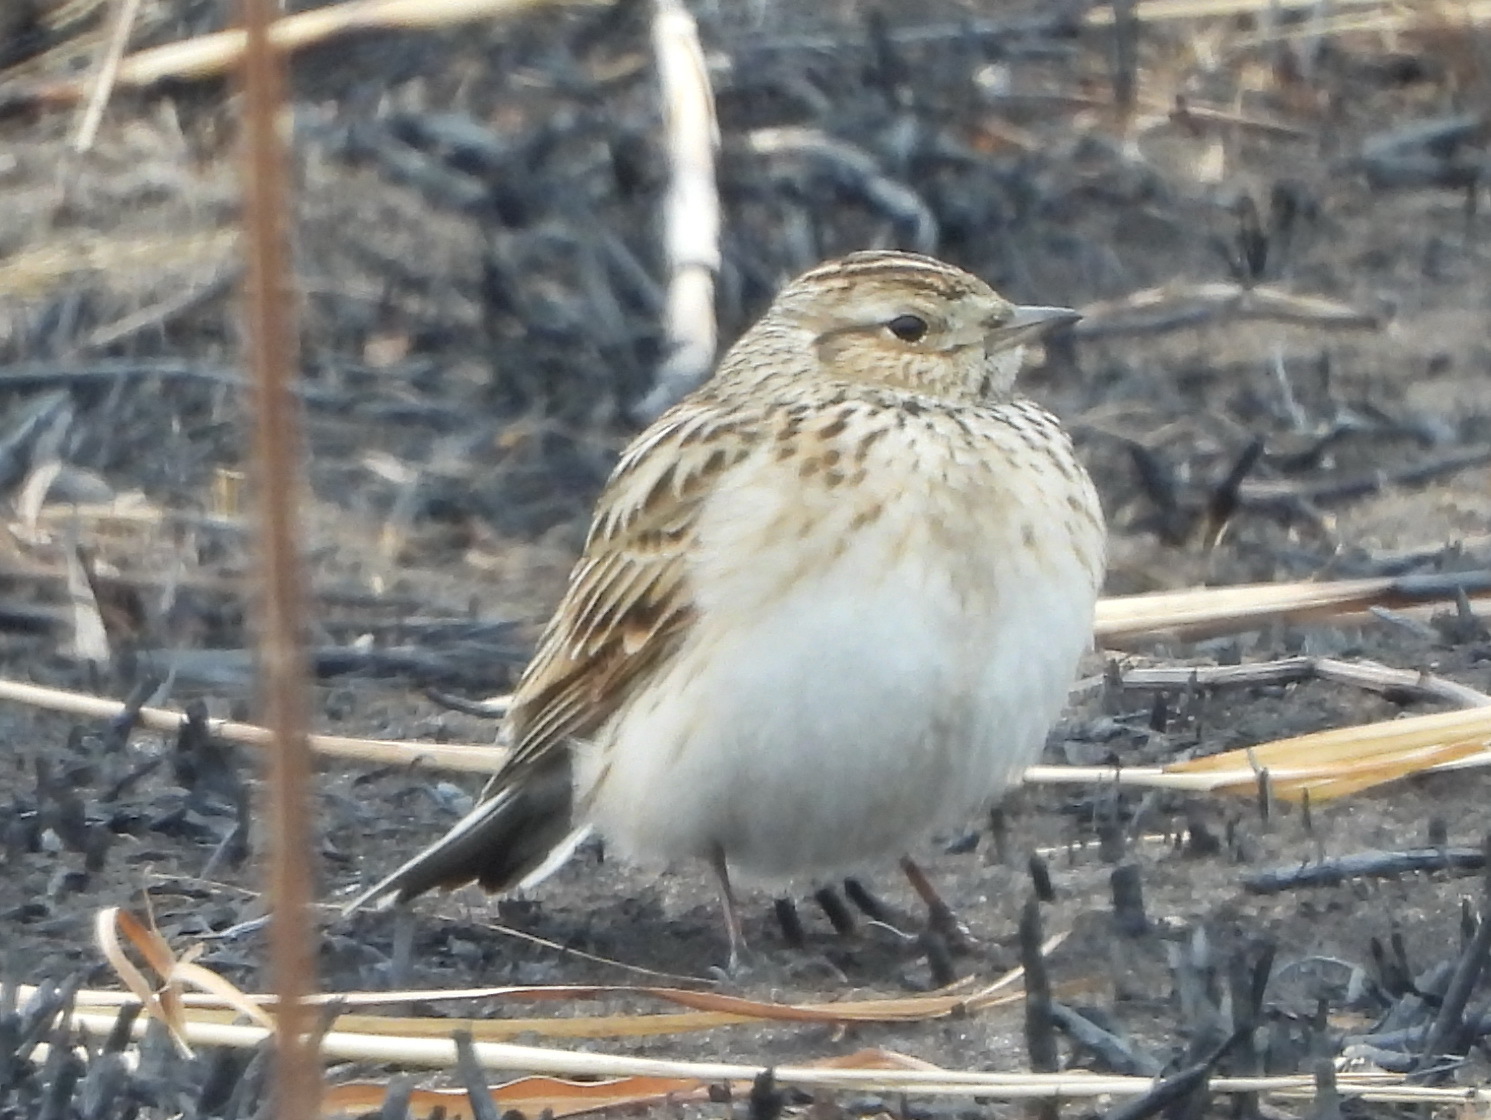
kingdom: Animalia
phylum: Chordata
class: Aves
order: Passeriformes
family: Alaudidae
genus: Alauda
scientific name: Alauda arvensis
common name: Eurasian skylark
